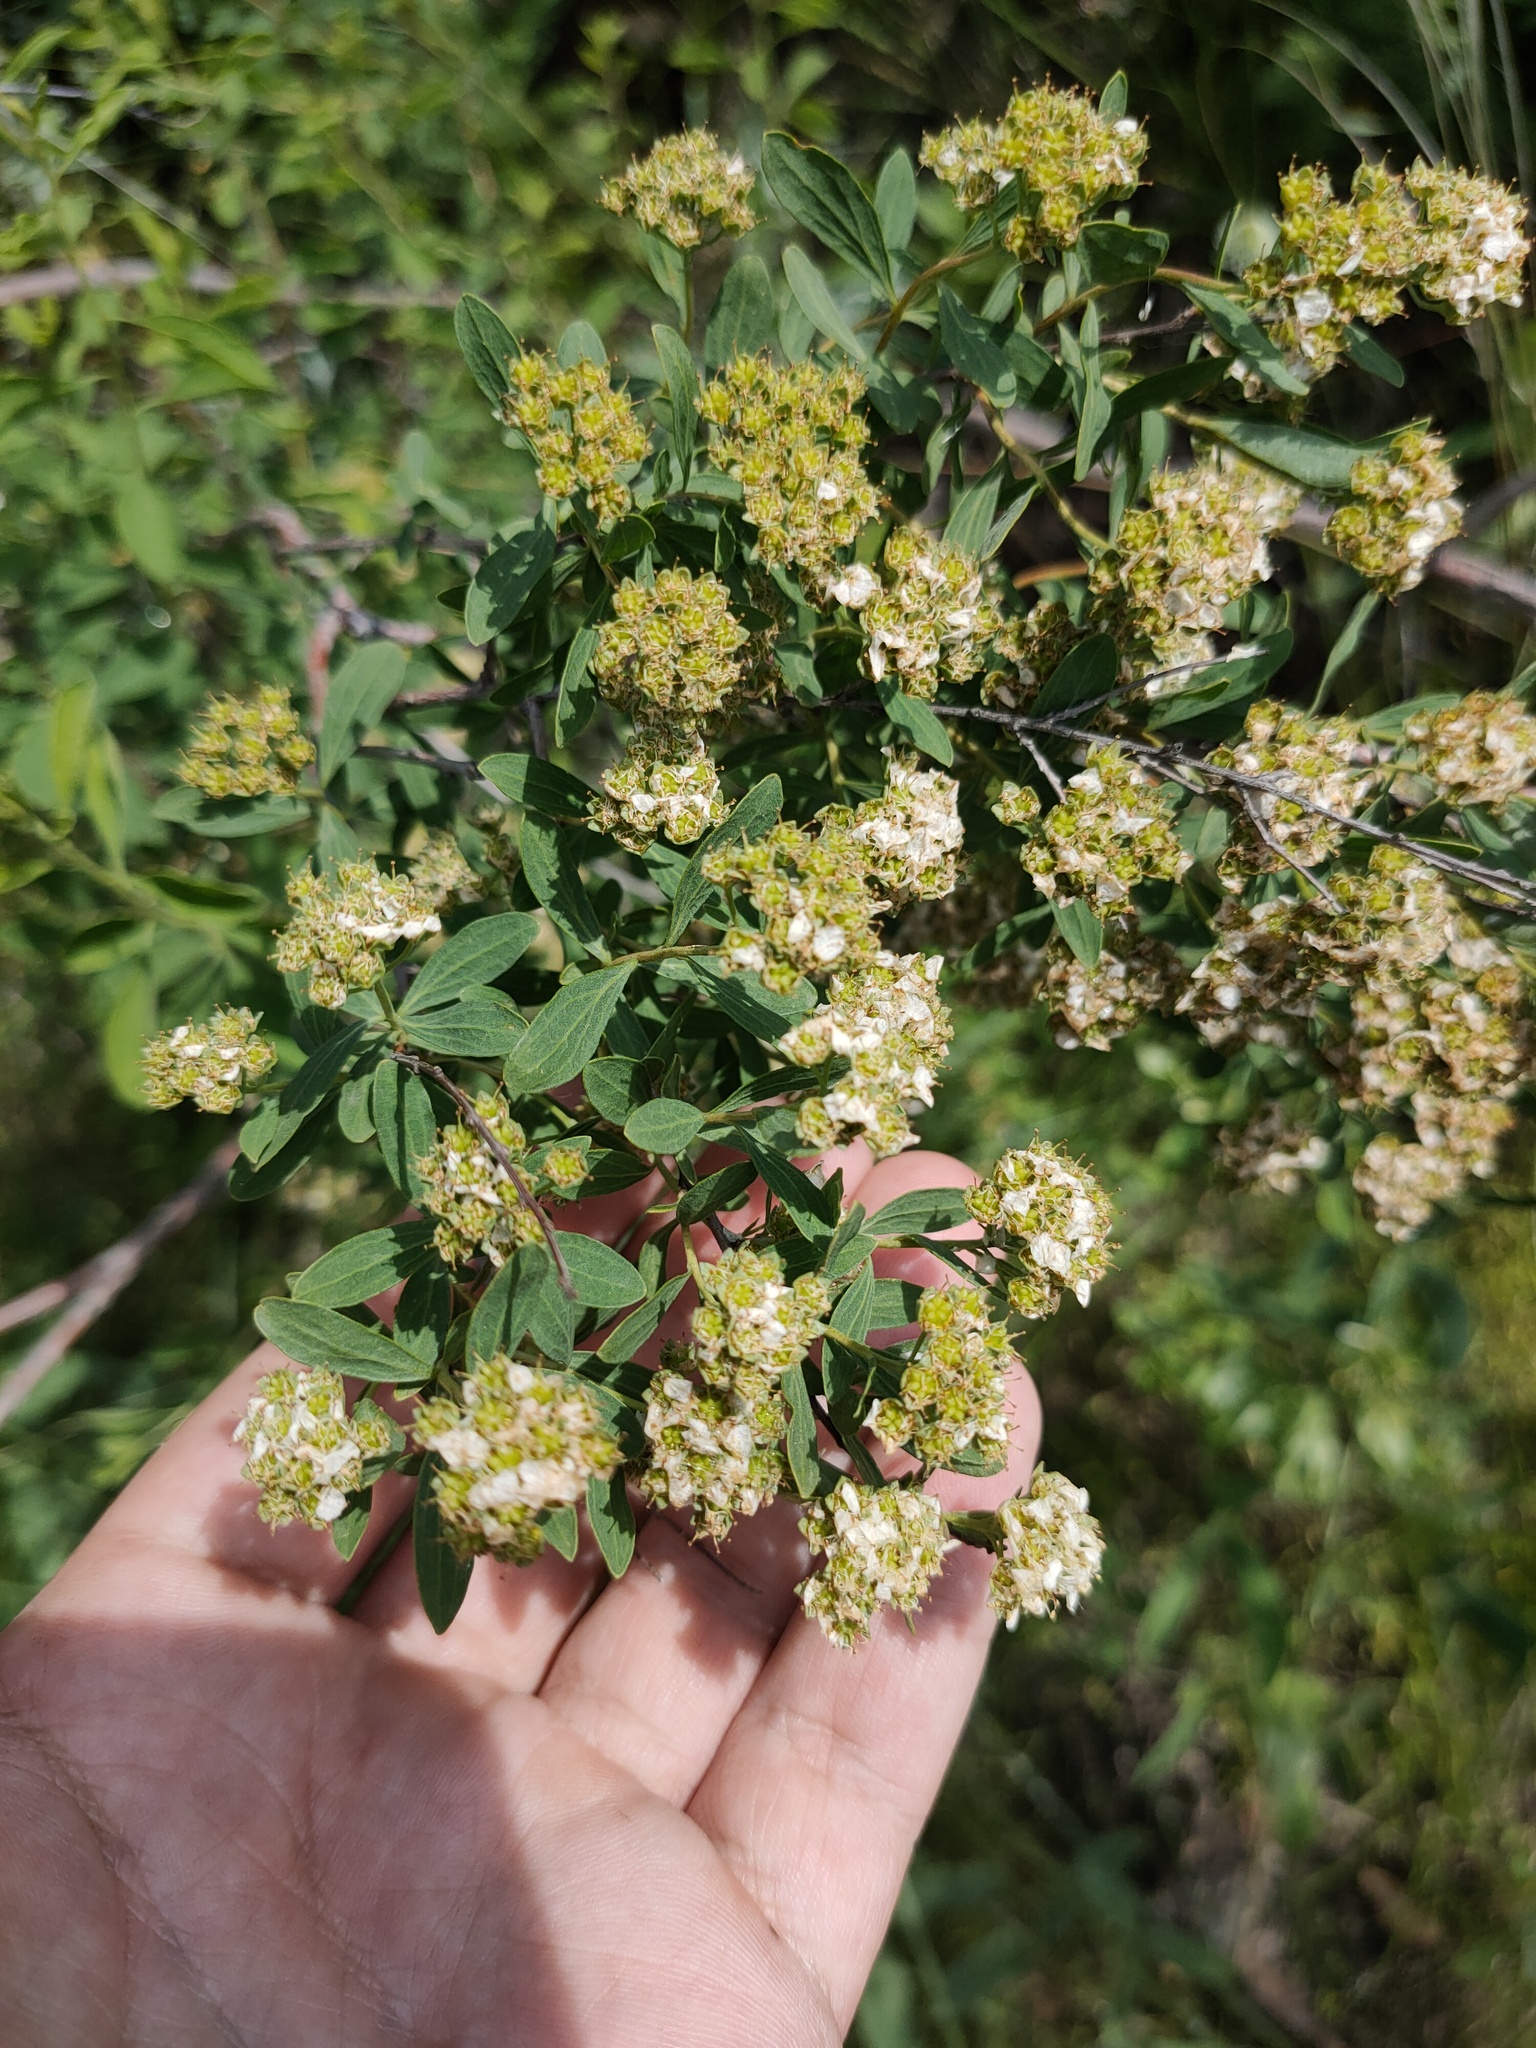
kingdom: Plantae
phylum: Tracheophyta
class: Magnoliopsida
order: Rosales
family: Rosaceae
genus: Spiraea
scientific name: Spiraea crenata
